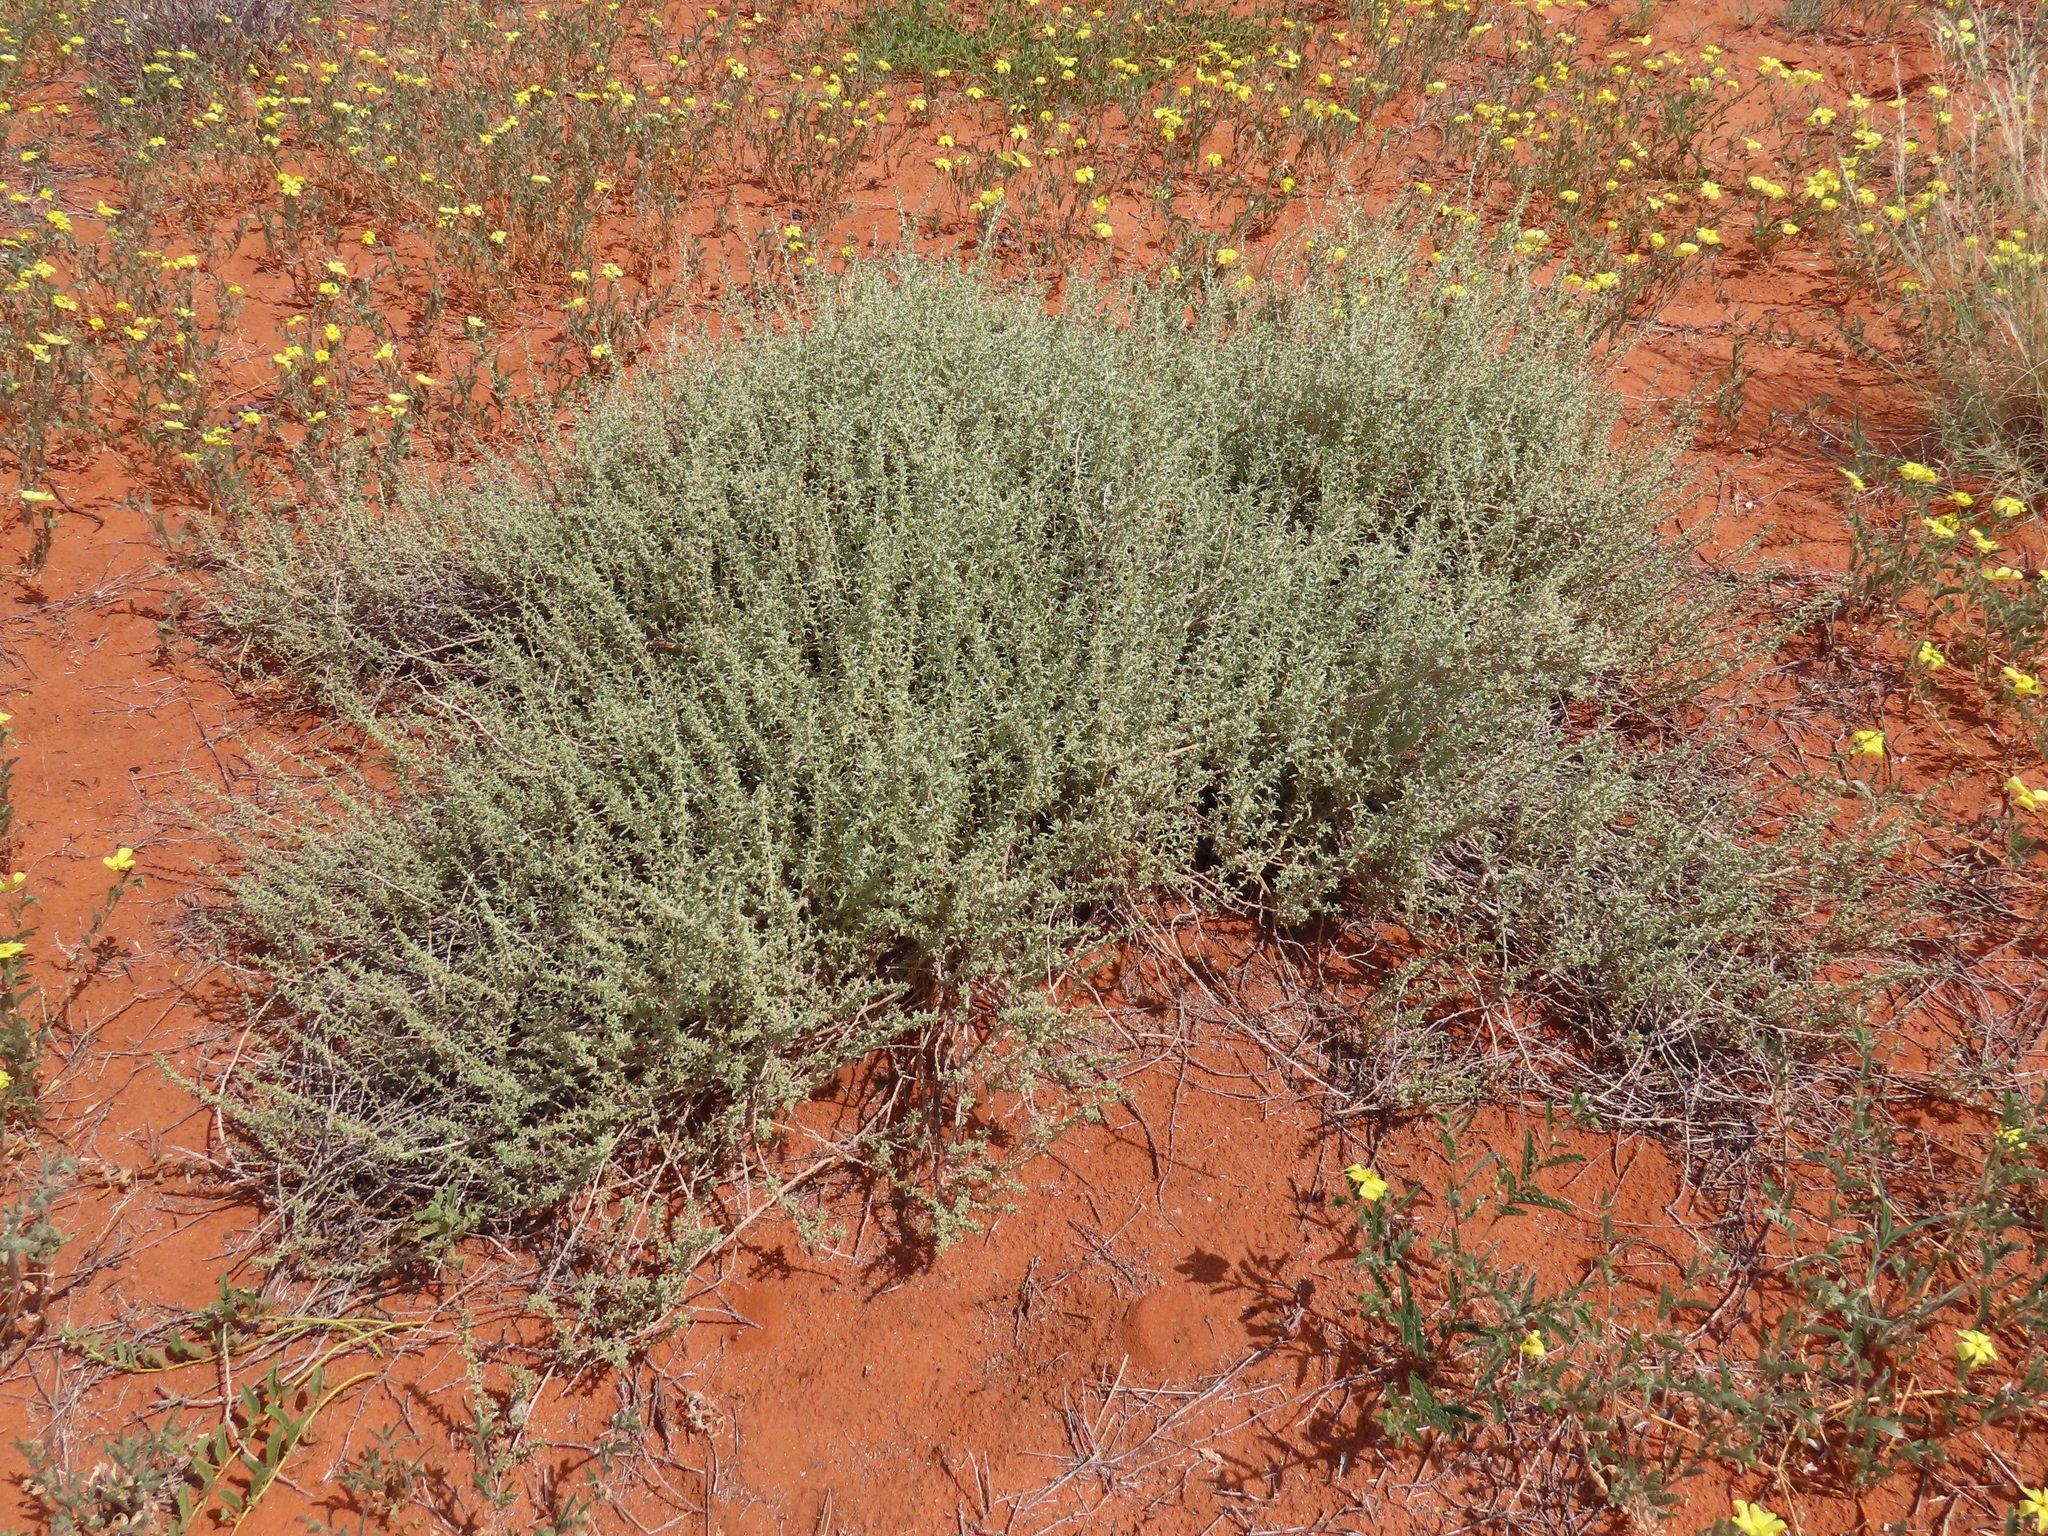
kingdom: Plantae
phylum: Tracheophyta
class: Magnoliopsida
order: Caryophyllales
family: Aizoaceae
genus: Aizoon
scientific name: Aizoon sericeum
